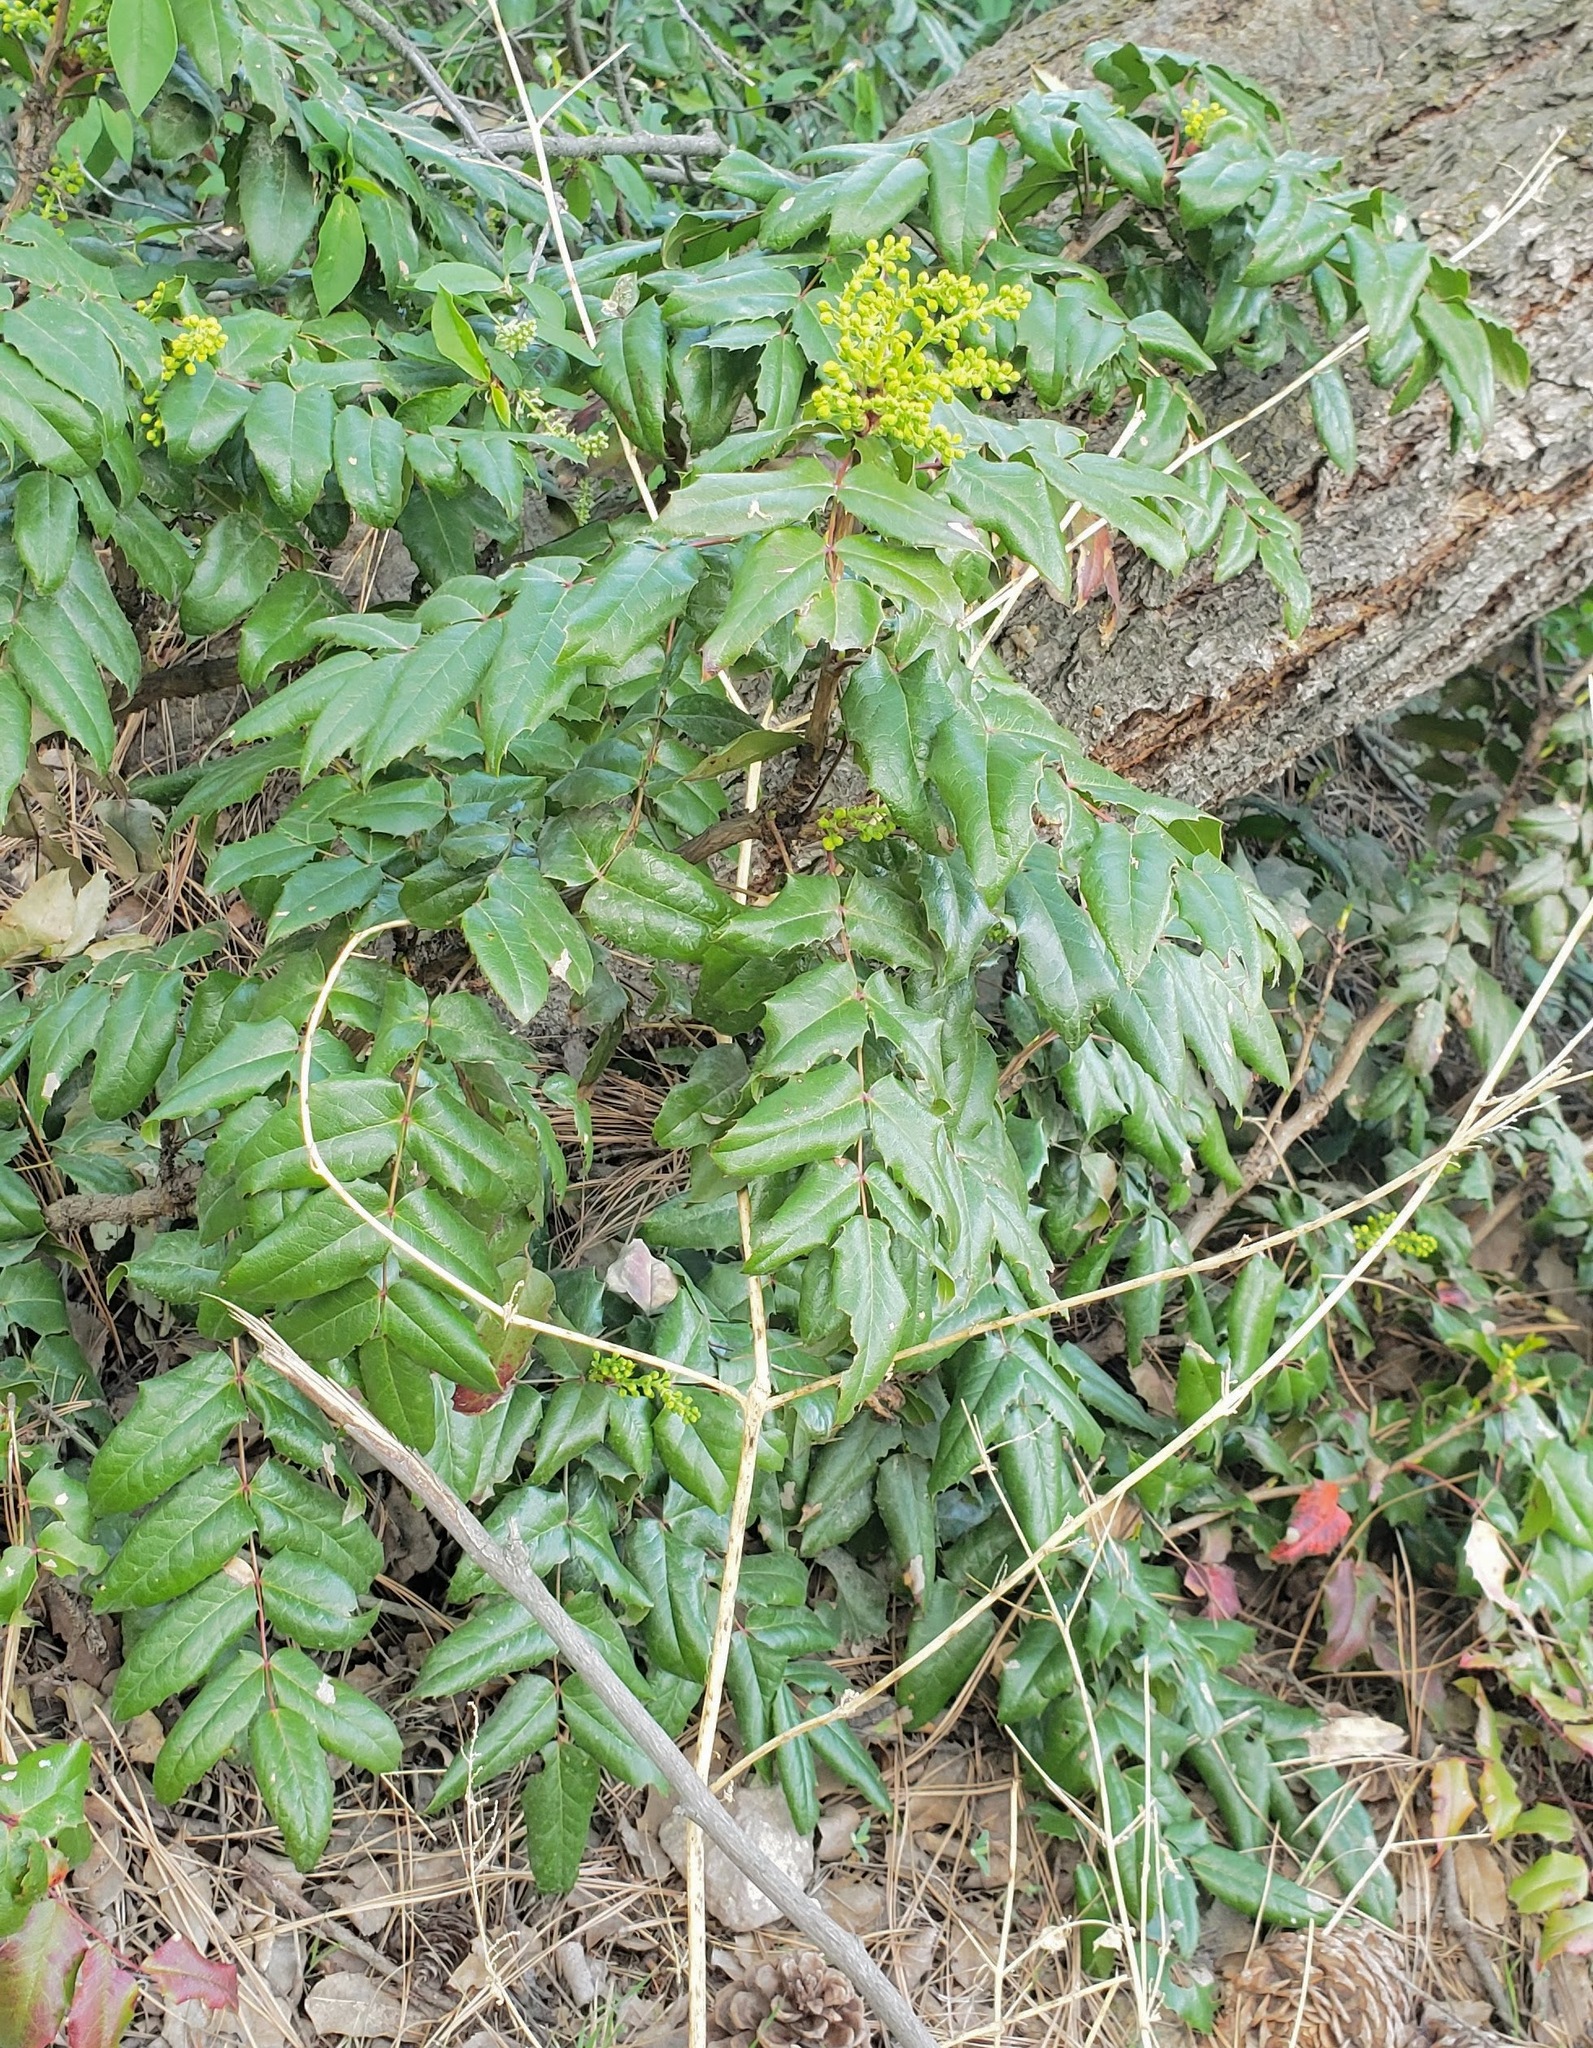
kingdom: Plantae
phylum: Tracheophyta
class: Magnoliopsida
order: Ranunculales
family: Berberidaceae
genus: Mahonia
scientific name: Mahonia aquifolium
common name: Oregon-grape
